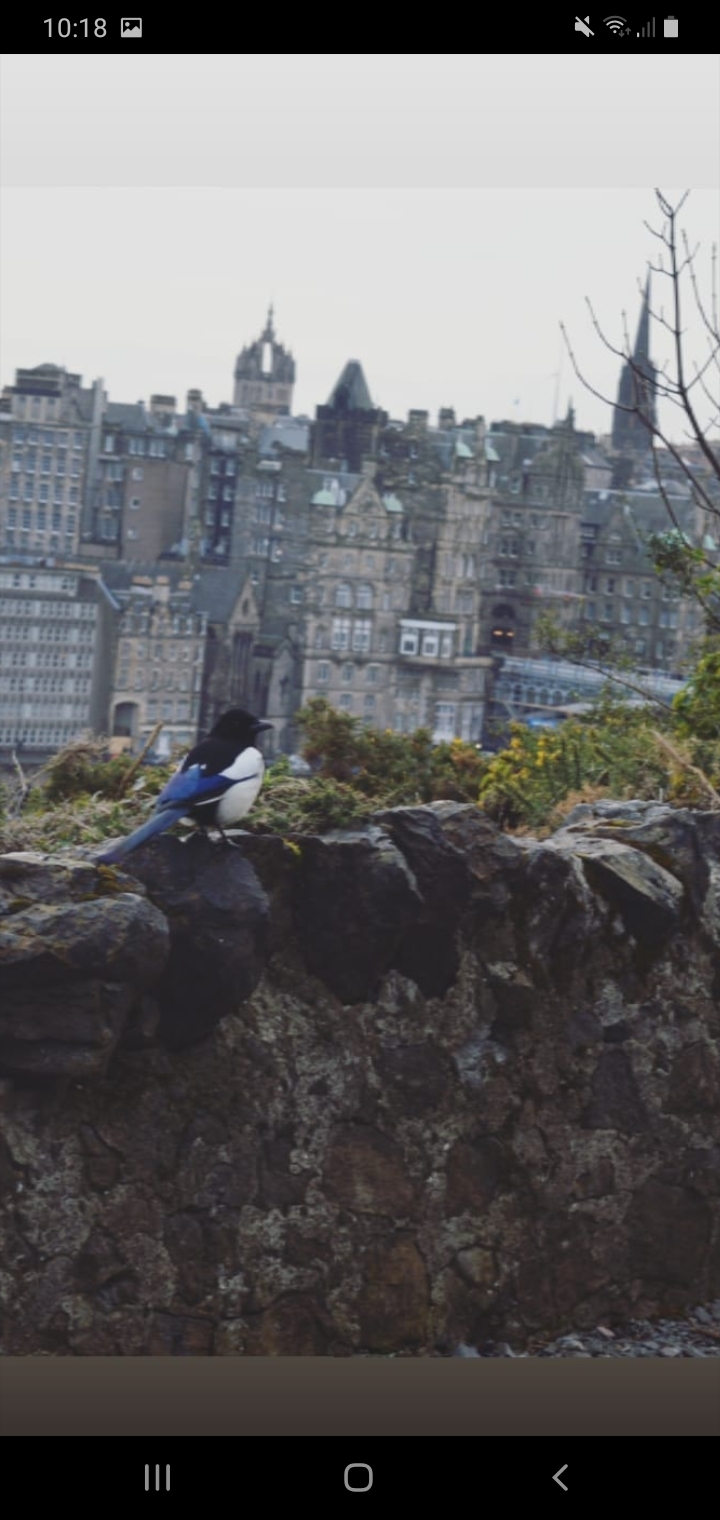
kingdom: Animalia
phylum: Chordata
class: Aves
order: Passeriformes
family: Corvidae
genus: Pica
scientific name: Pica pica
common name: Eurasian magpie
